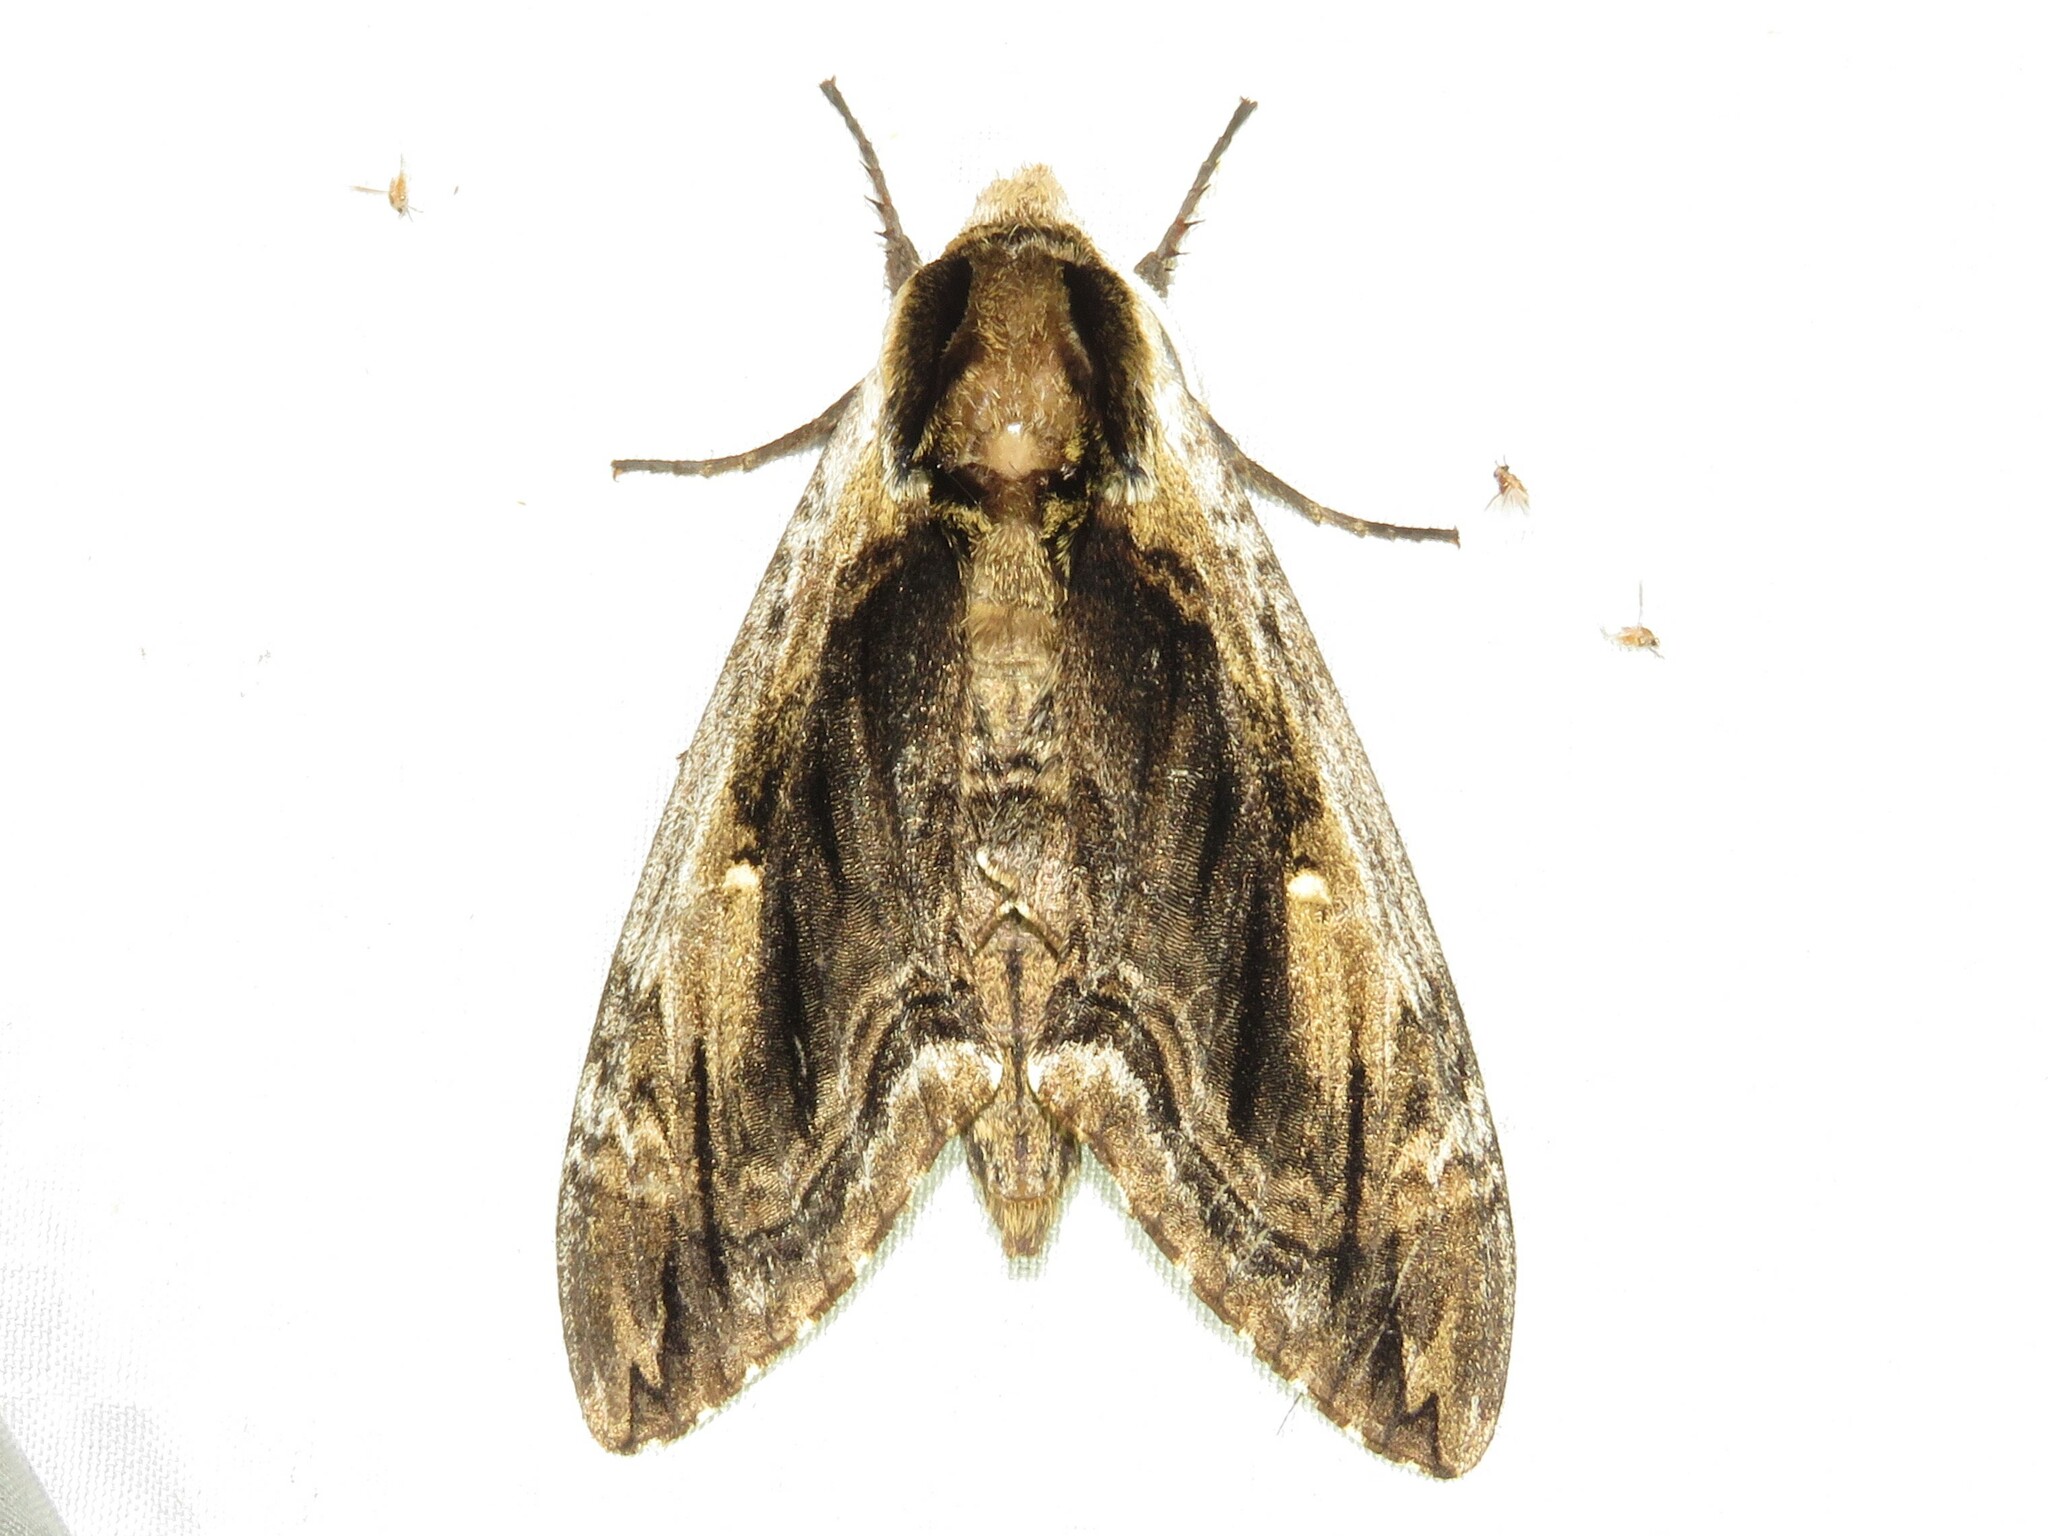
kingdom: Animalia
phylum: Arthropoda
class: Insecta
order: Lepidoptera
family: Sphingidae
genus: Ceratomia
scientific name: Ceratomia amyntor
